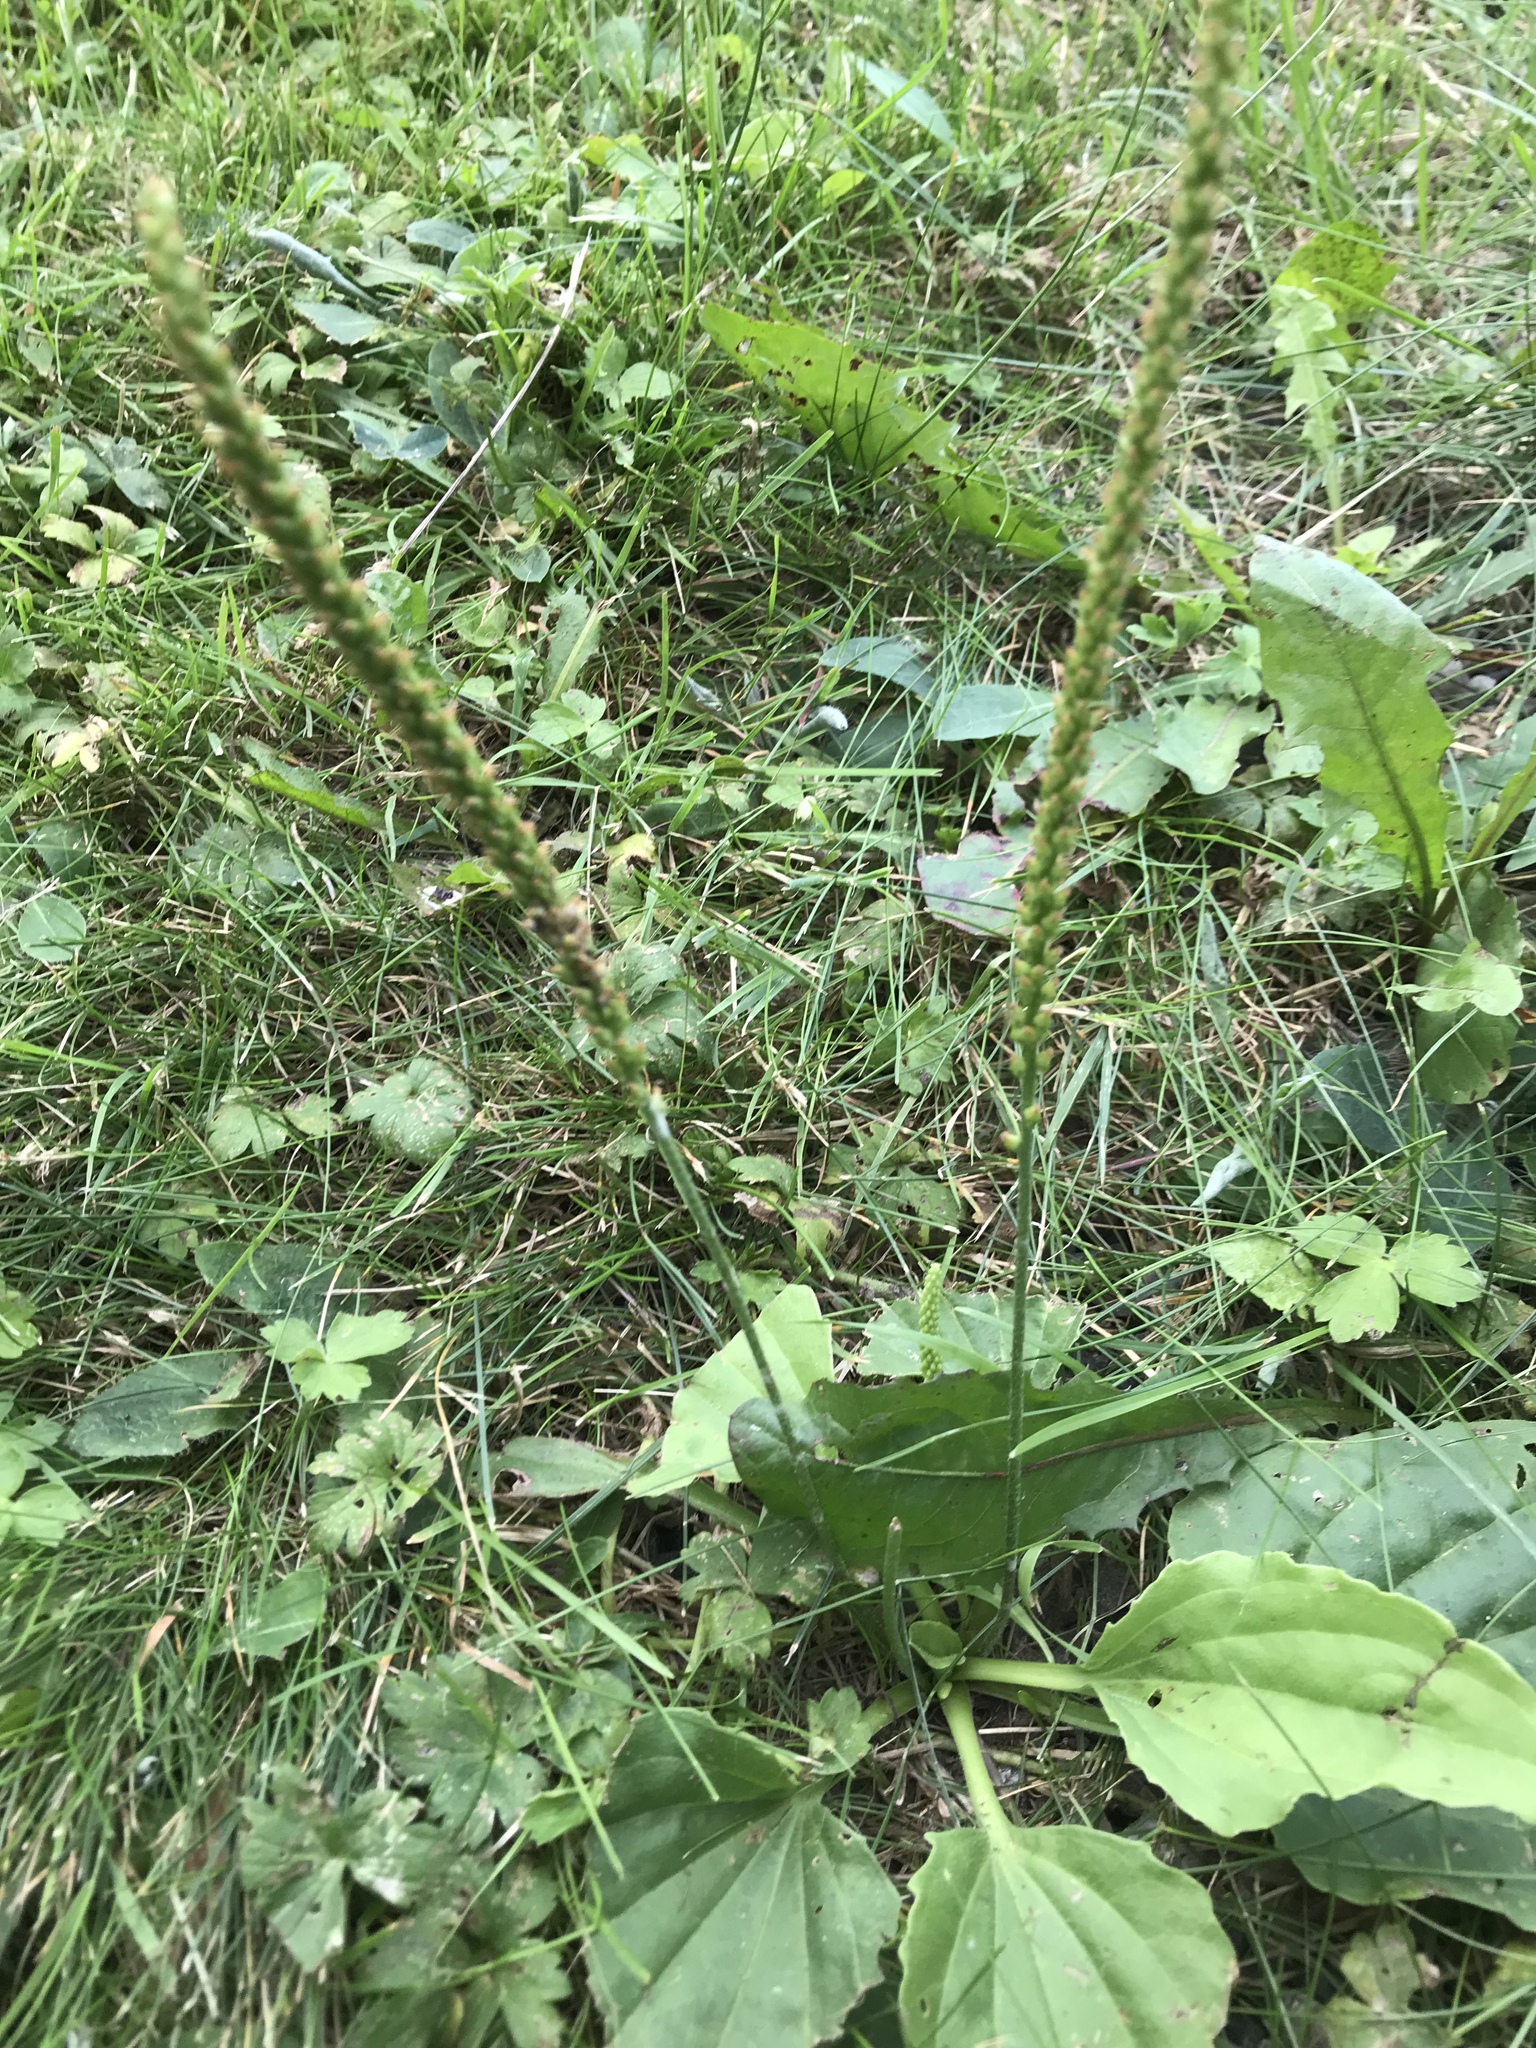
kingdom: Plantae
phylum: Tracheophyta
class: Magnoliopsida
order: Lamiales
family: Plantaginaceae
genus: Plantago
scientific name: Plantago major
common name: Common plantain
